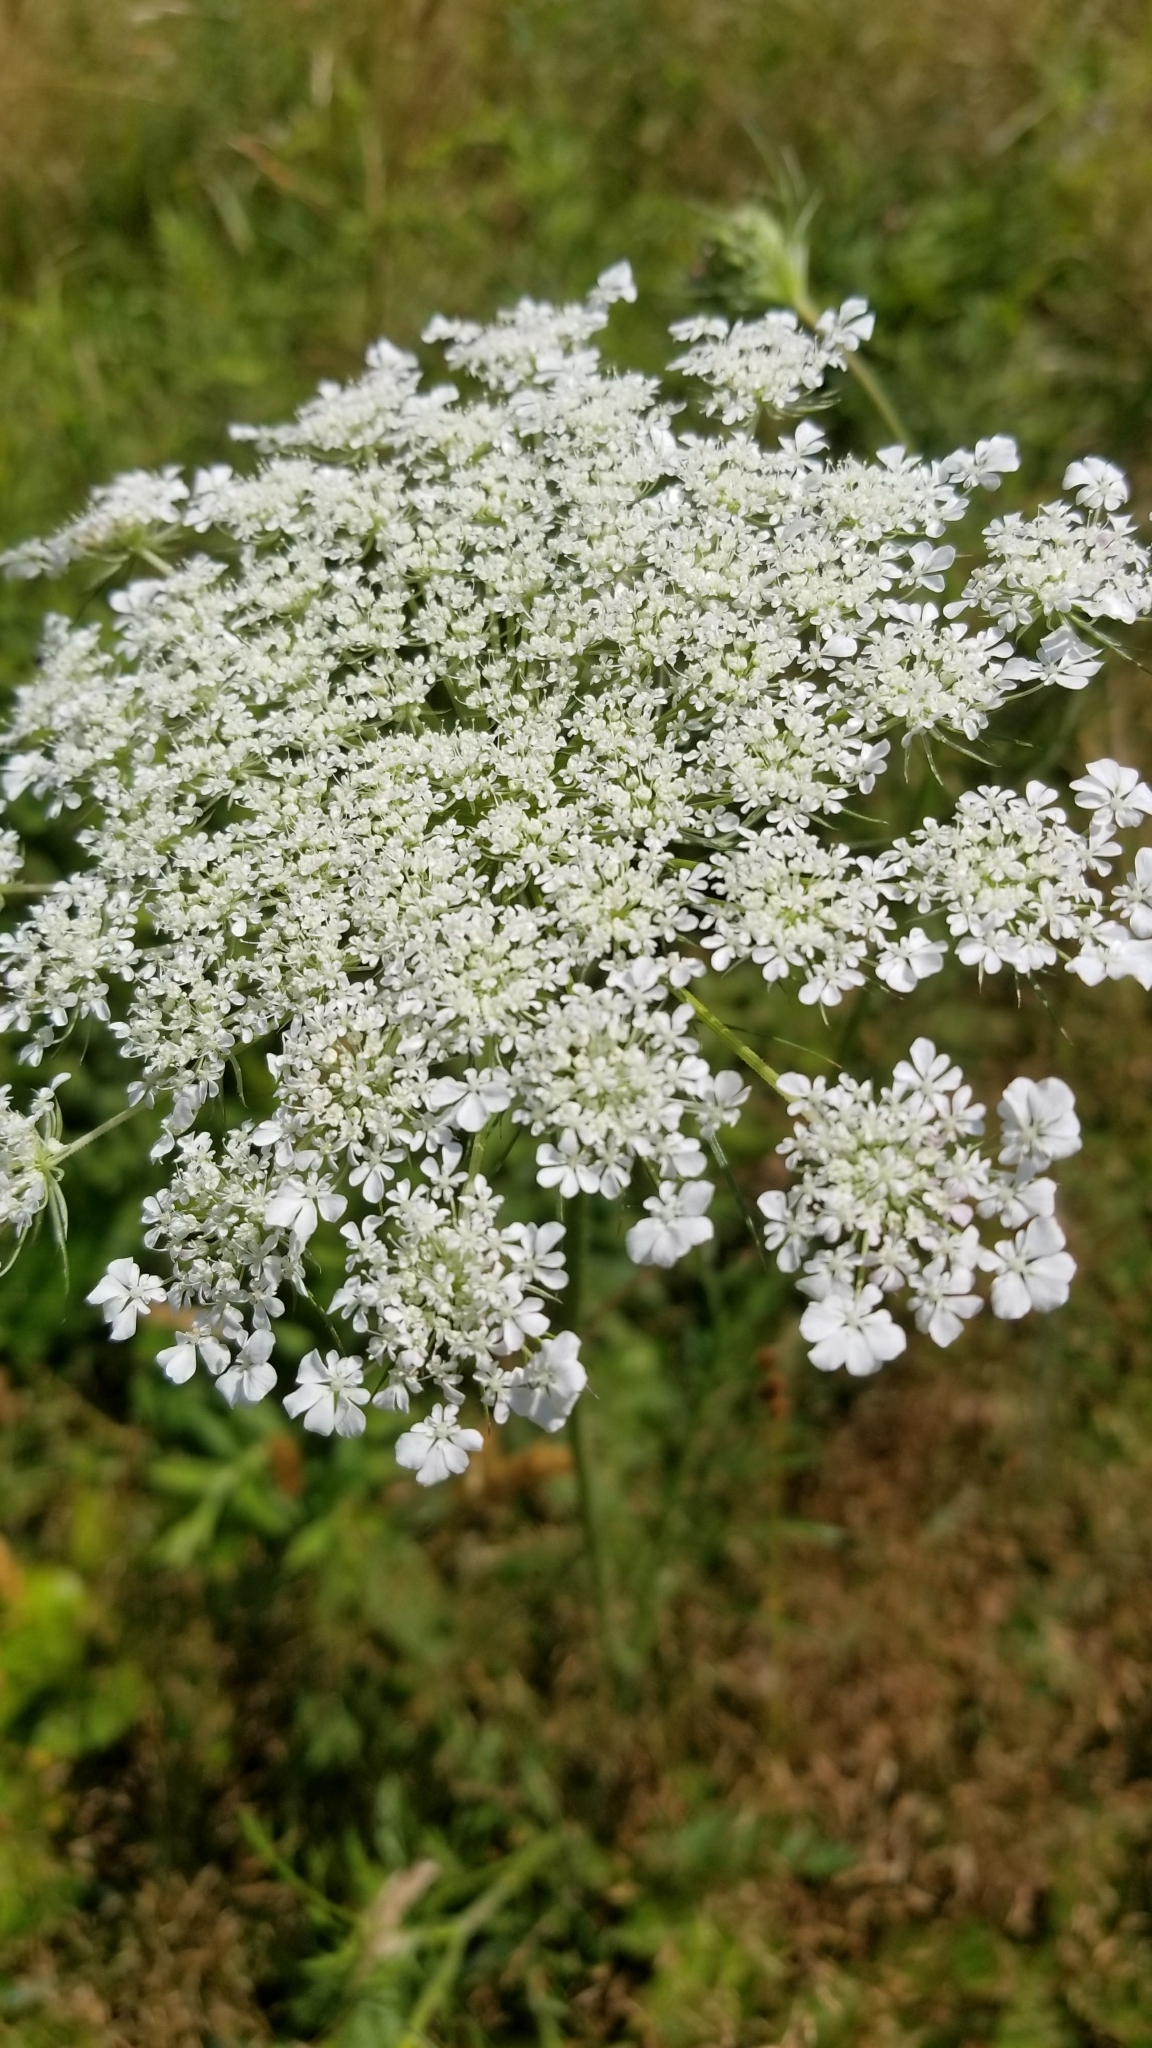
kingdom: Plantae
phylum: Tracheophyta
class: Magnoliopsida
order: Apiales
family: Apiaceae
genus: Daucus
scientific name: Daucus carota
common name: Wild carrot
